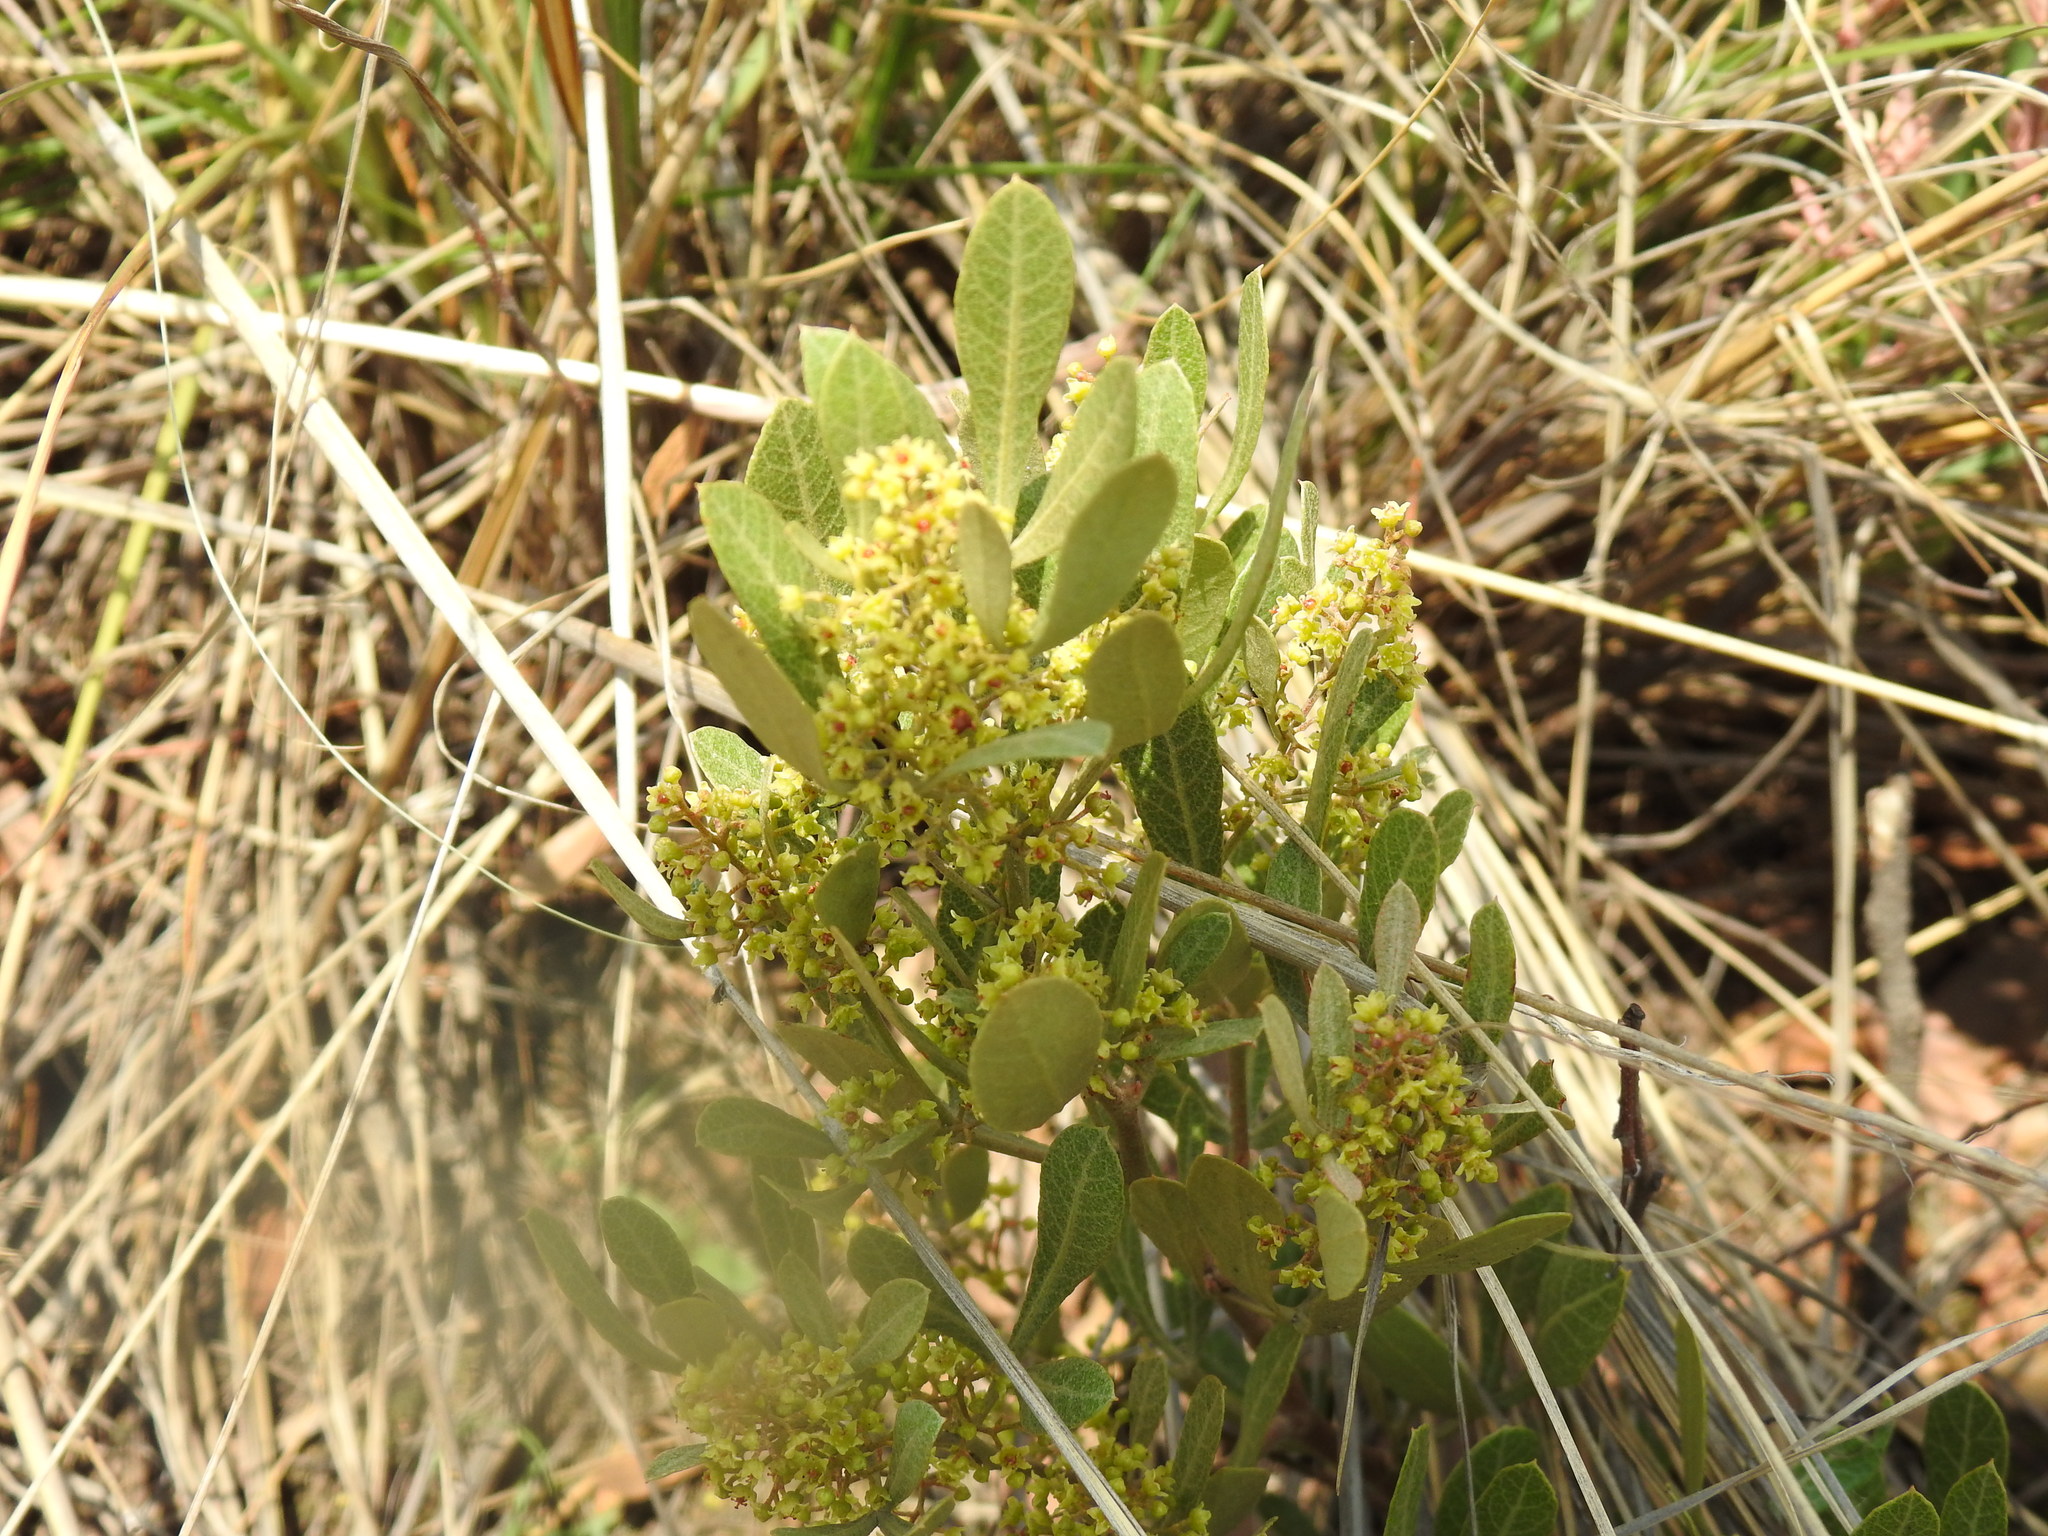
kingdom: Plantae
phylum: Tracheophyta
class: Magnoliopsida
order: Sapindales
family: Anacardiaceae
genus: Searsia
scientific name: Searsia magalismontana
